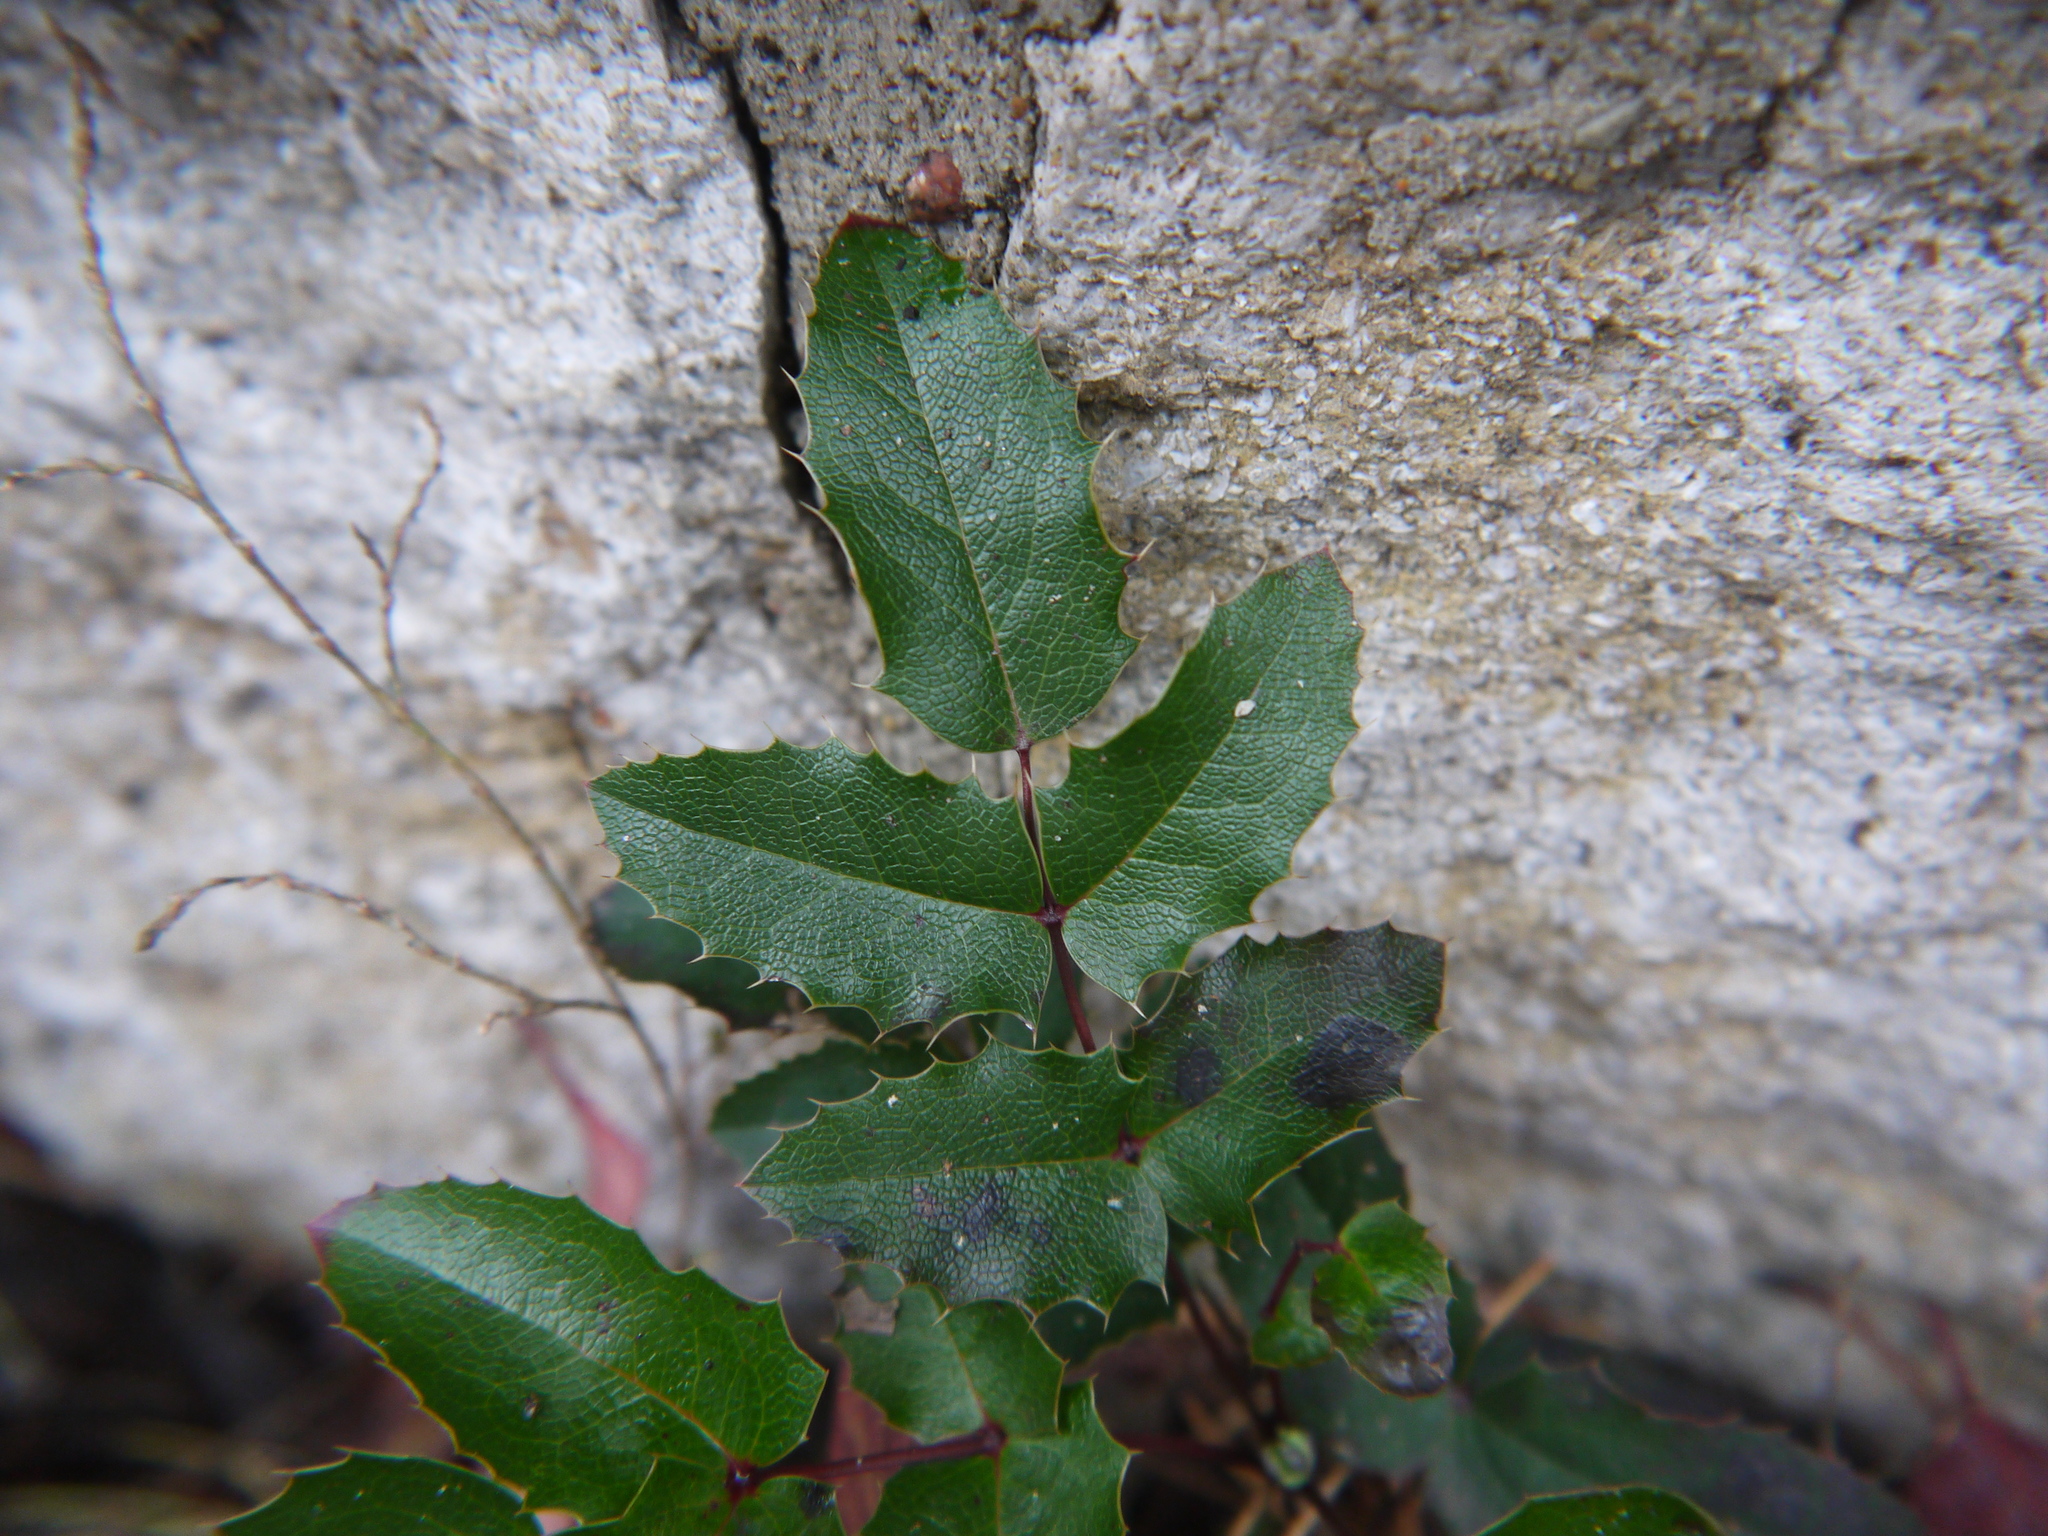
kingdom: Plantae
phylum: Tracheophyta
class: Magnoliopsida
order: Ranunculales
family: Berberidaceae
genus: Mahonia
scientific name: Mahonia aquifolium
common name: Oregon-grape
